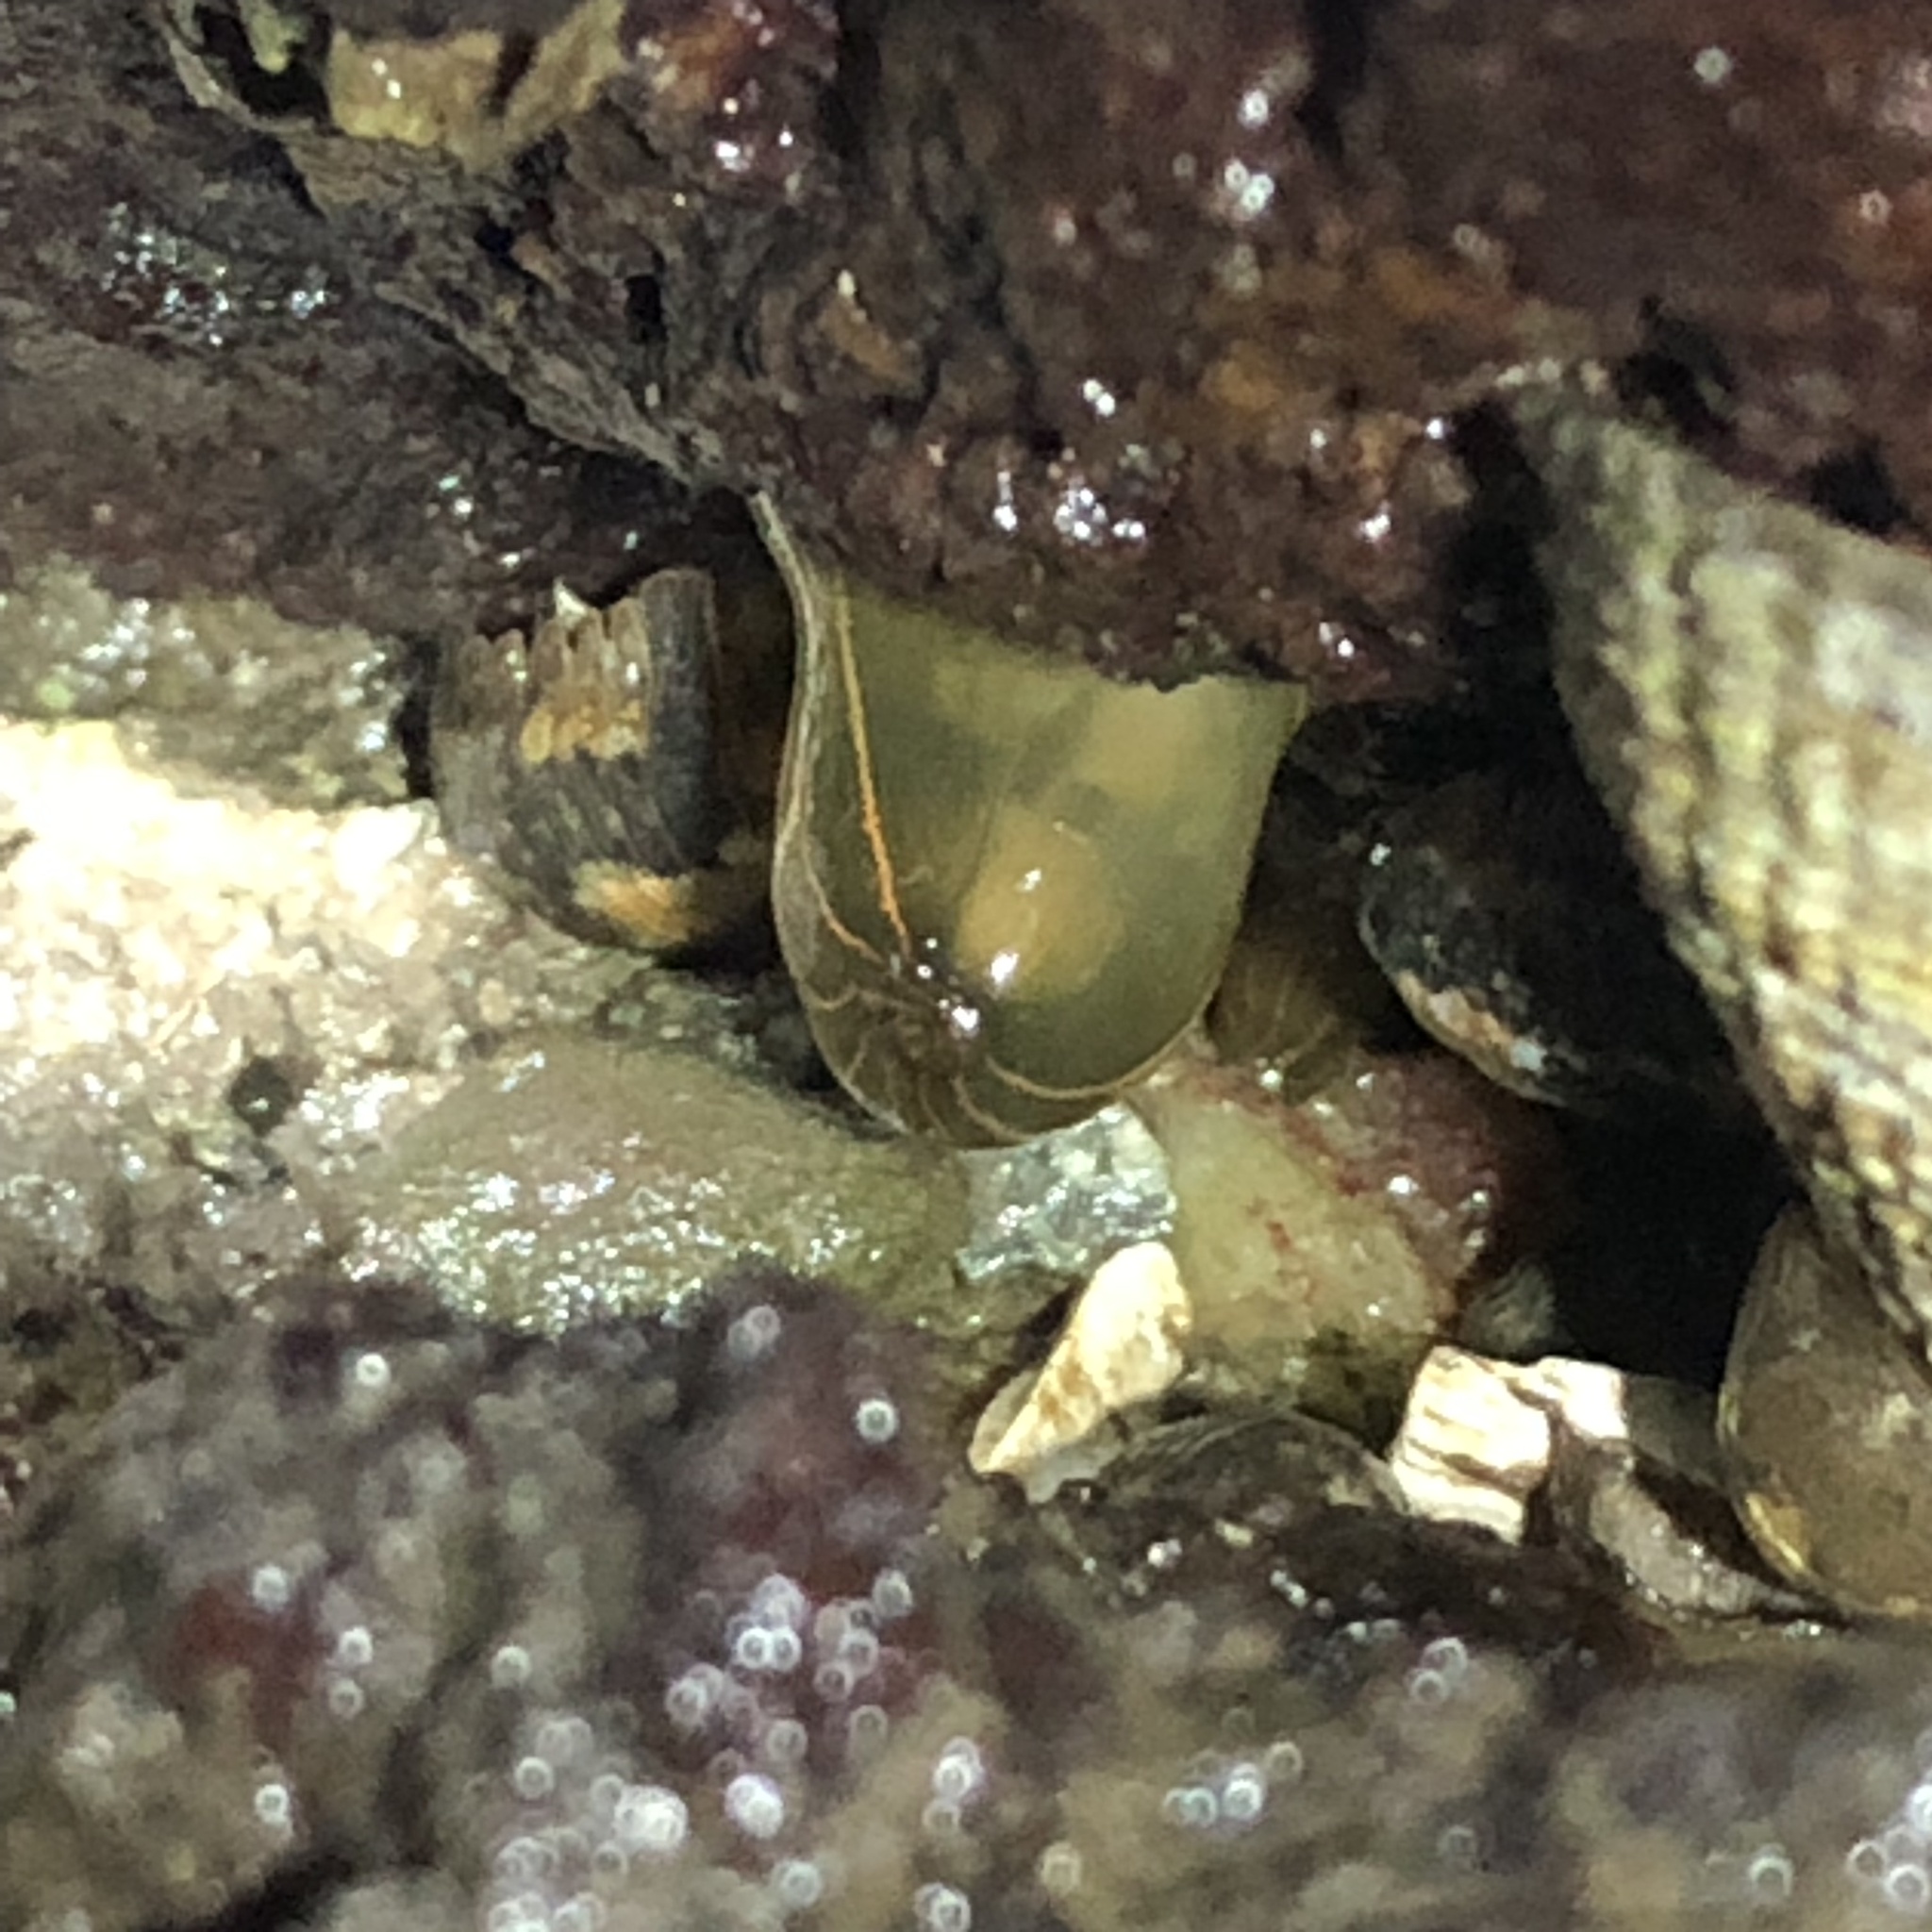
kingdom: Animalia
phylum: Cnidaria
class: Anthozoa
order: Actiniaria
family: Diadumenidae
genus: Diadumene
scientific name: Diadumene lineata
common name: Orange-striped anemone
